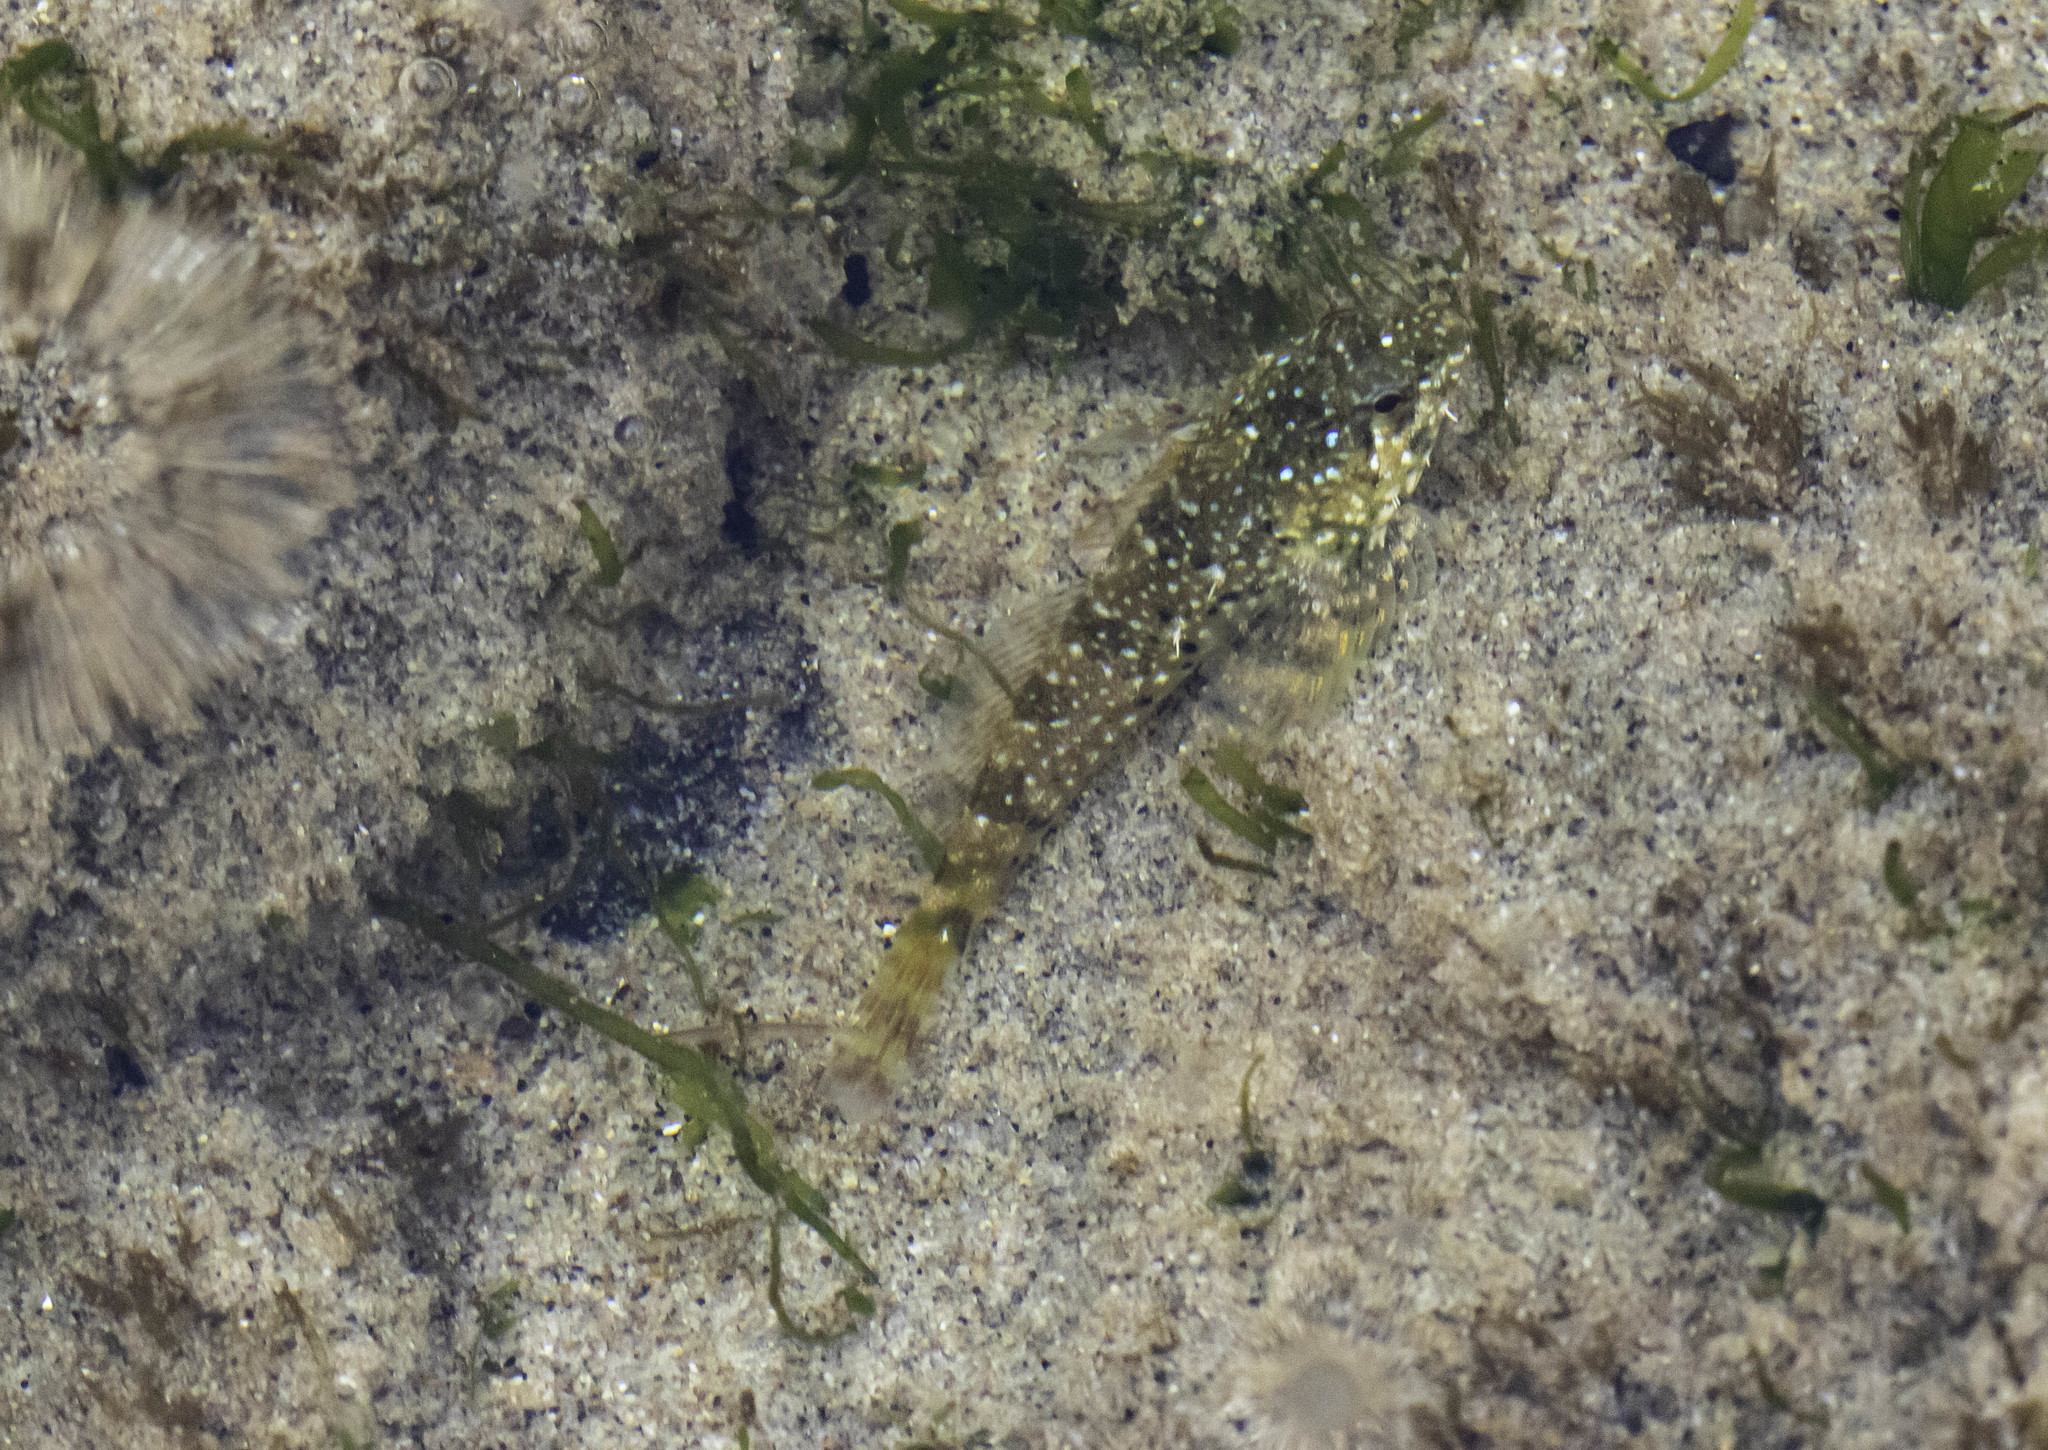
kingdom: Animalia
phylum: Chordata
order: Scorpaeniformes
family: Cottidae
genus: Clinocottus
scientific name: Clinocottus analis
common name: Woolly sculpin
